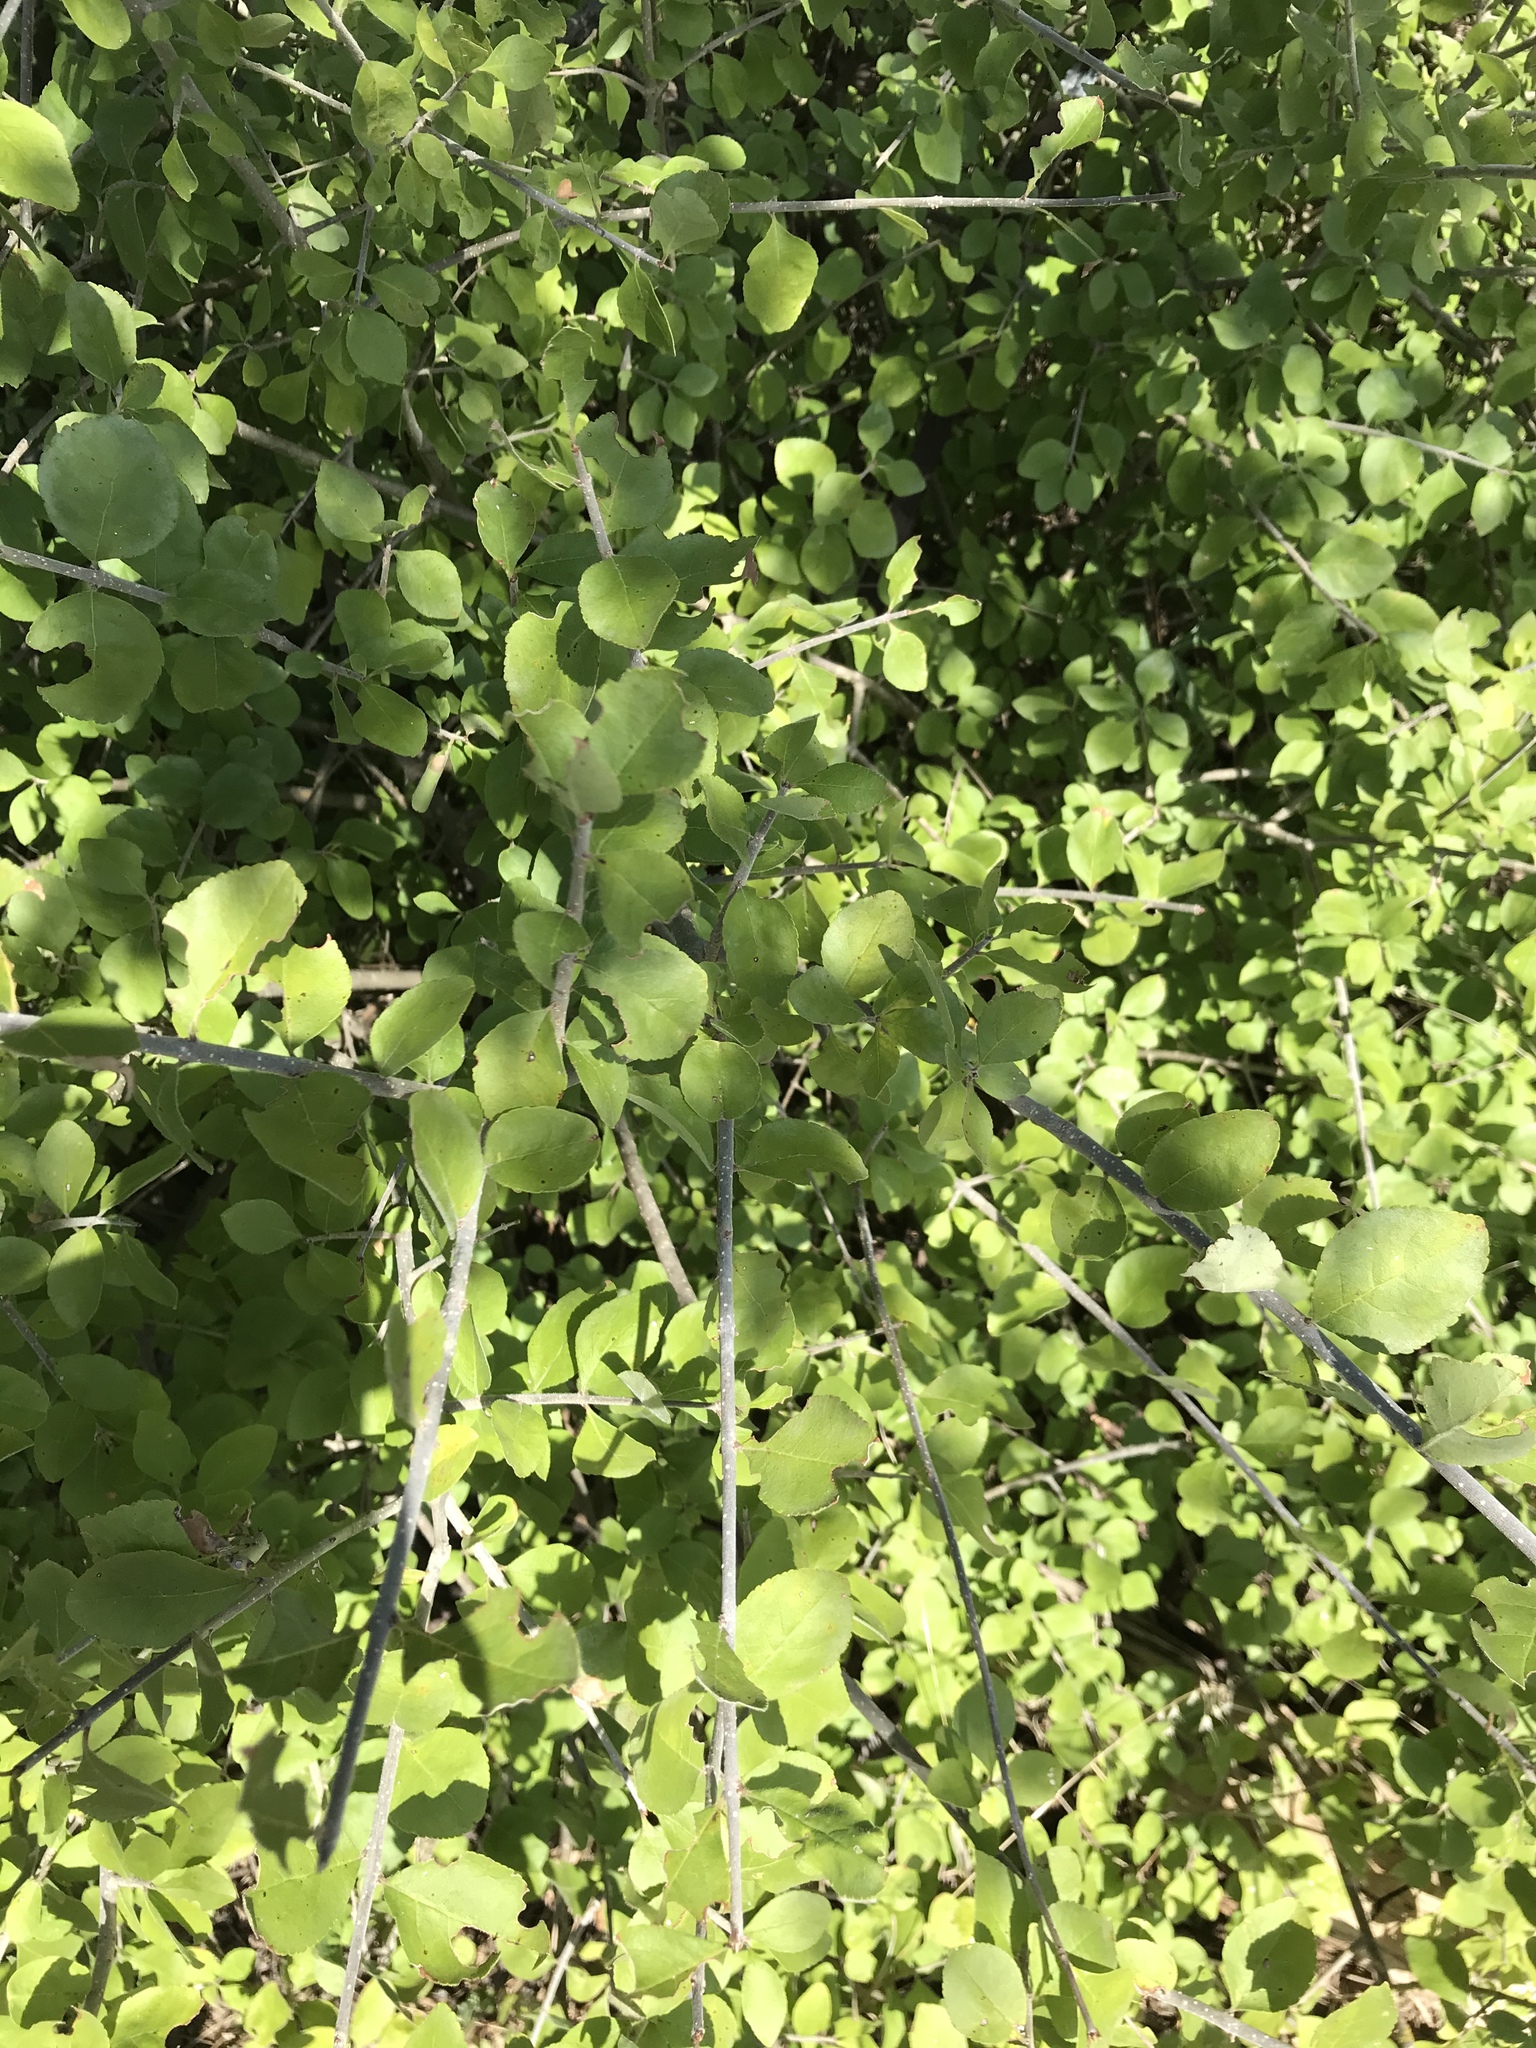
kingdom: Plantae
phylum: Tracheophyta
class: Magnoliopsida
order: Lamiales
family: Oleaceae
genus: Forestiera
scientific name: Forestiera pubescens
